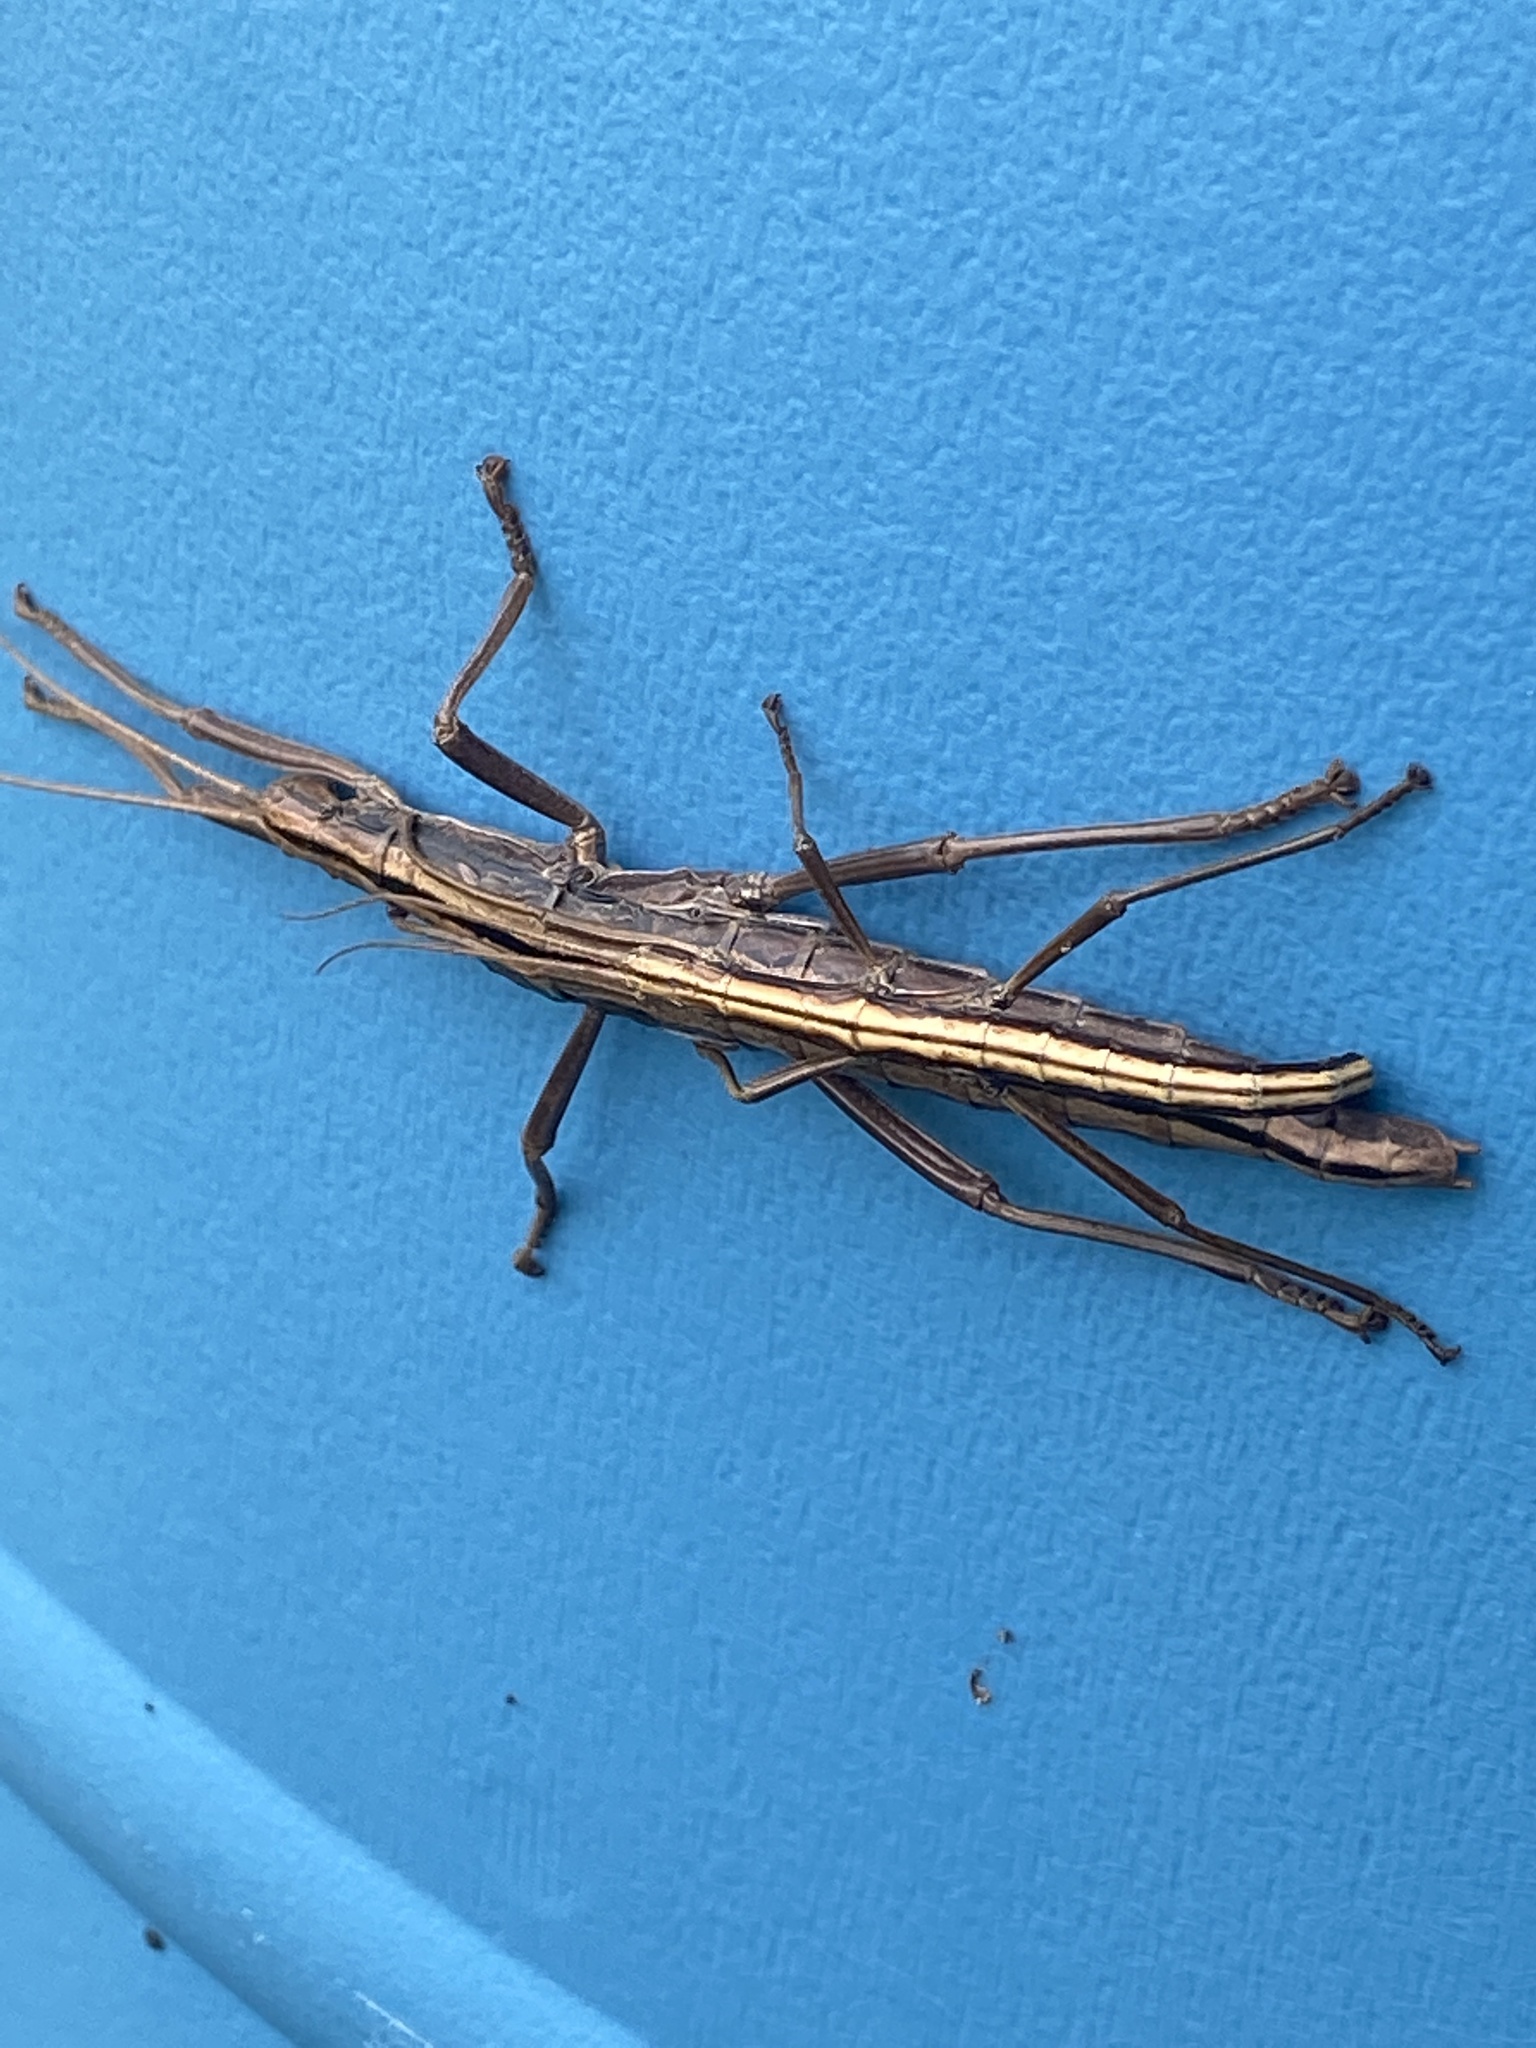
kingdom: Animalia
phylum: Arthropoda
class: Insecta
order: Phasmida
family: Pseudophasmatidae
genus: Anisomorpha
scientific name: Anisomorpha buprestoides
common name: Florida stick insect
